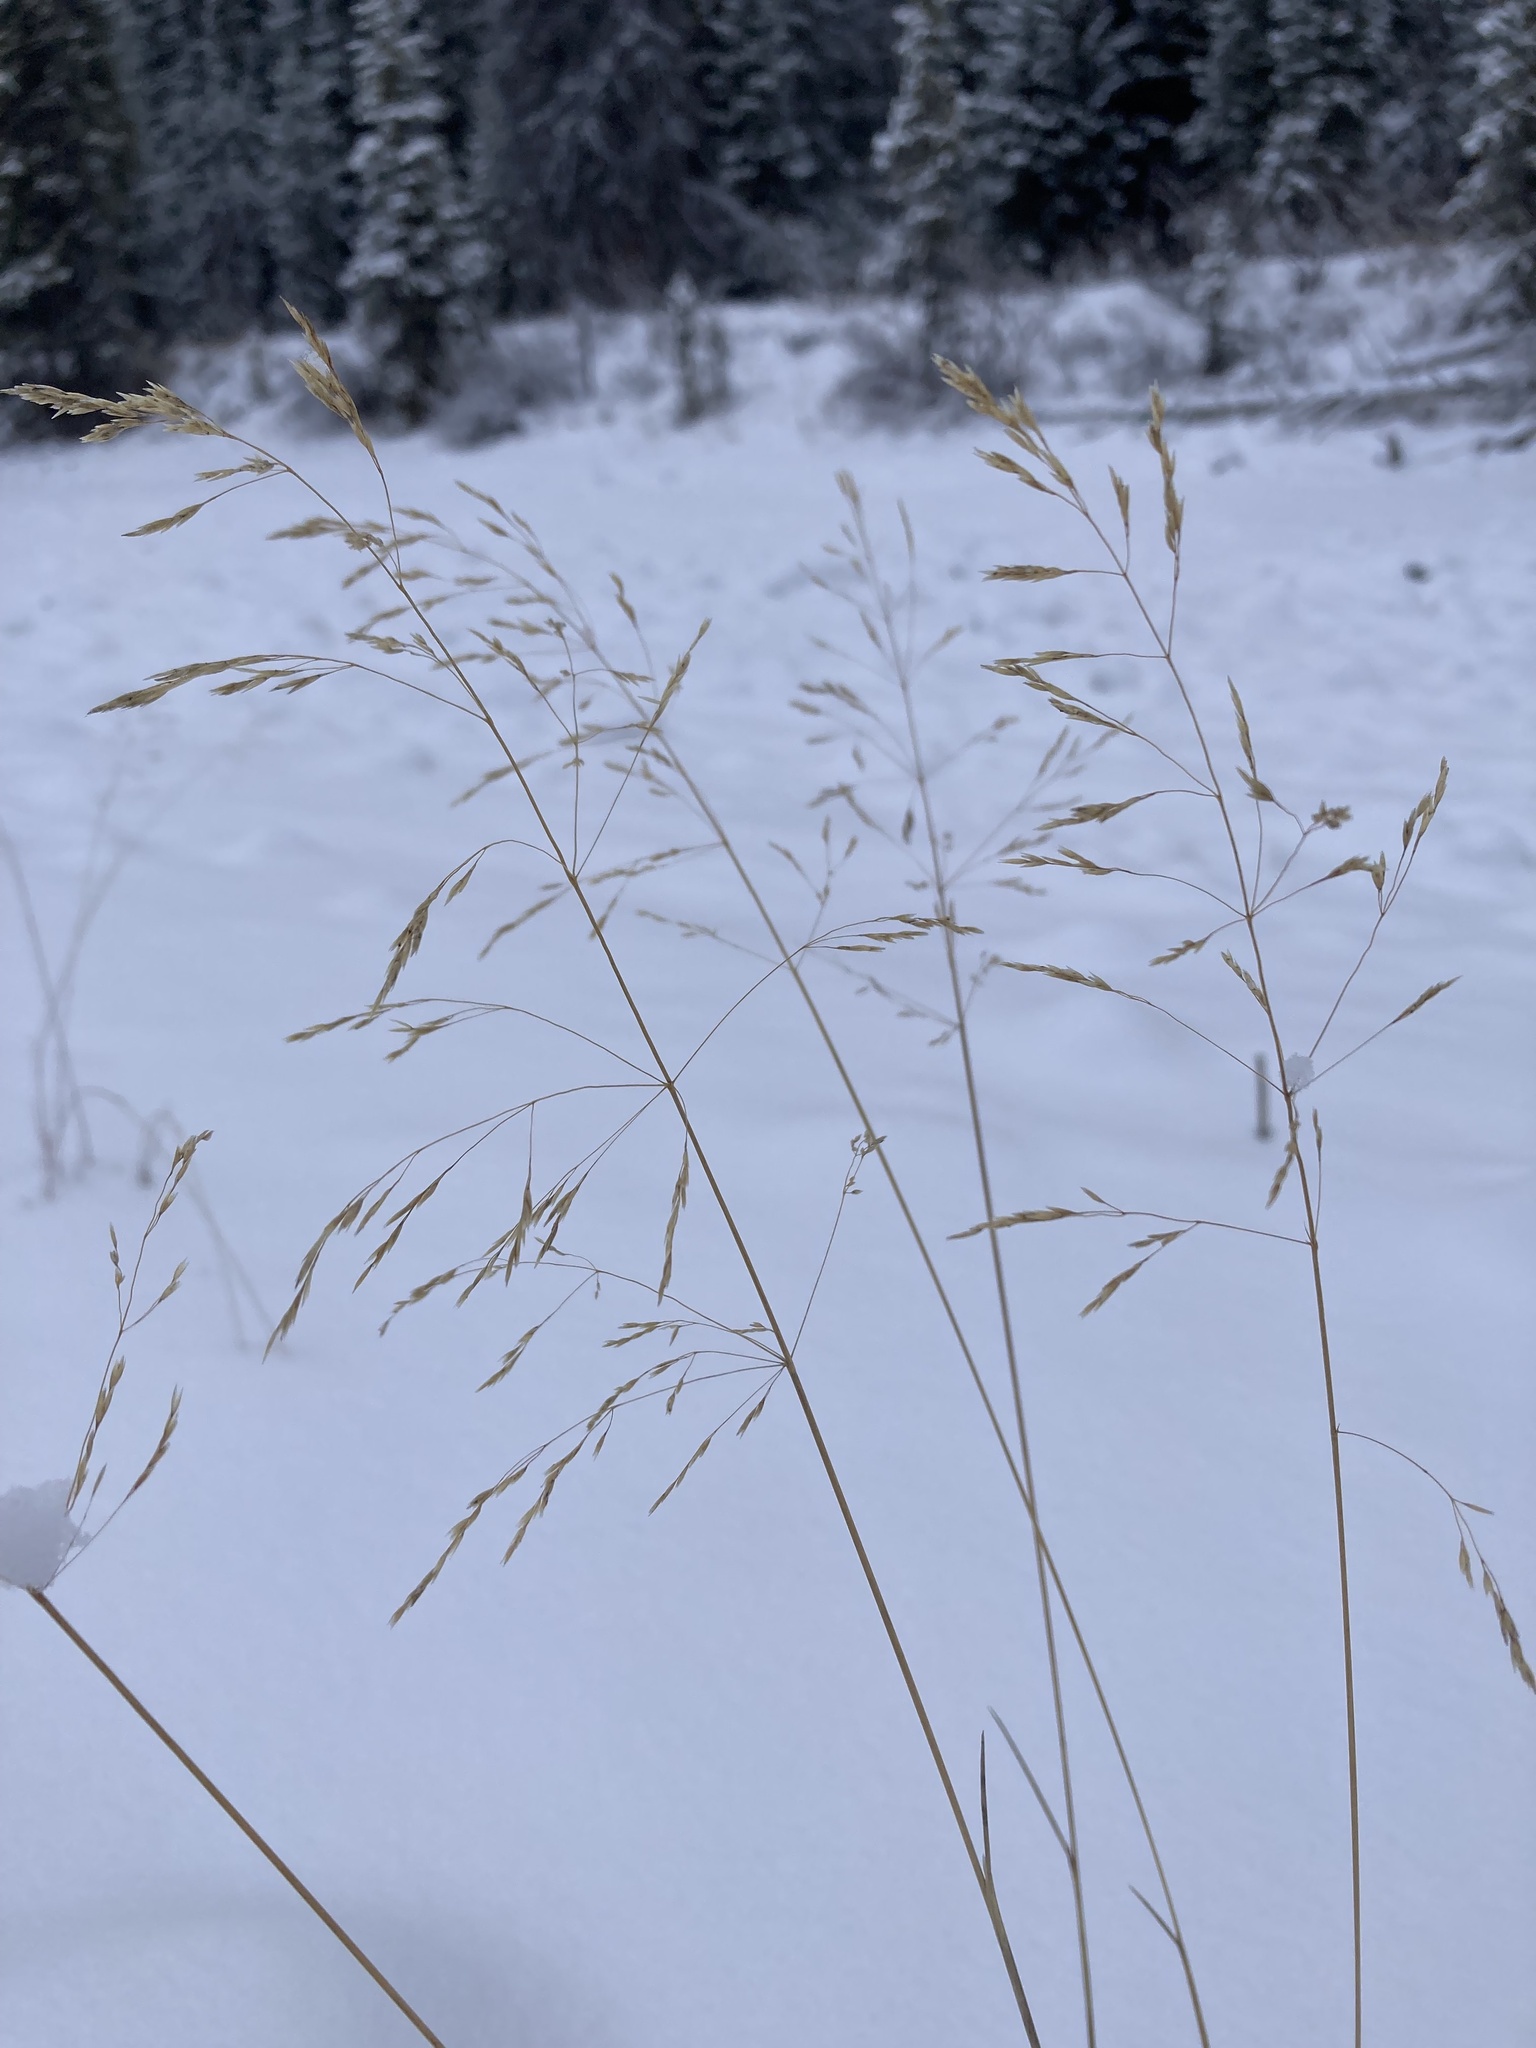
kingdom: Plantae
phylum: Tracheophyta
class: Liliopsida
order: Poales
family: Poaceae
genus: Deschampsia
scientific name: Deschampsia cespitosa
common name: Tufted hair-grass
